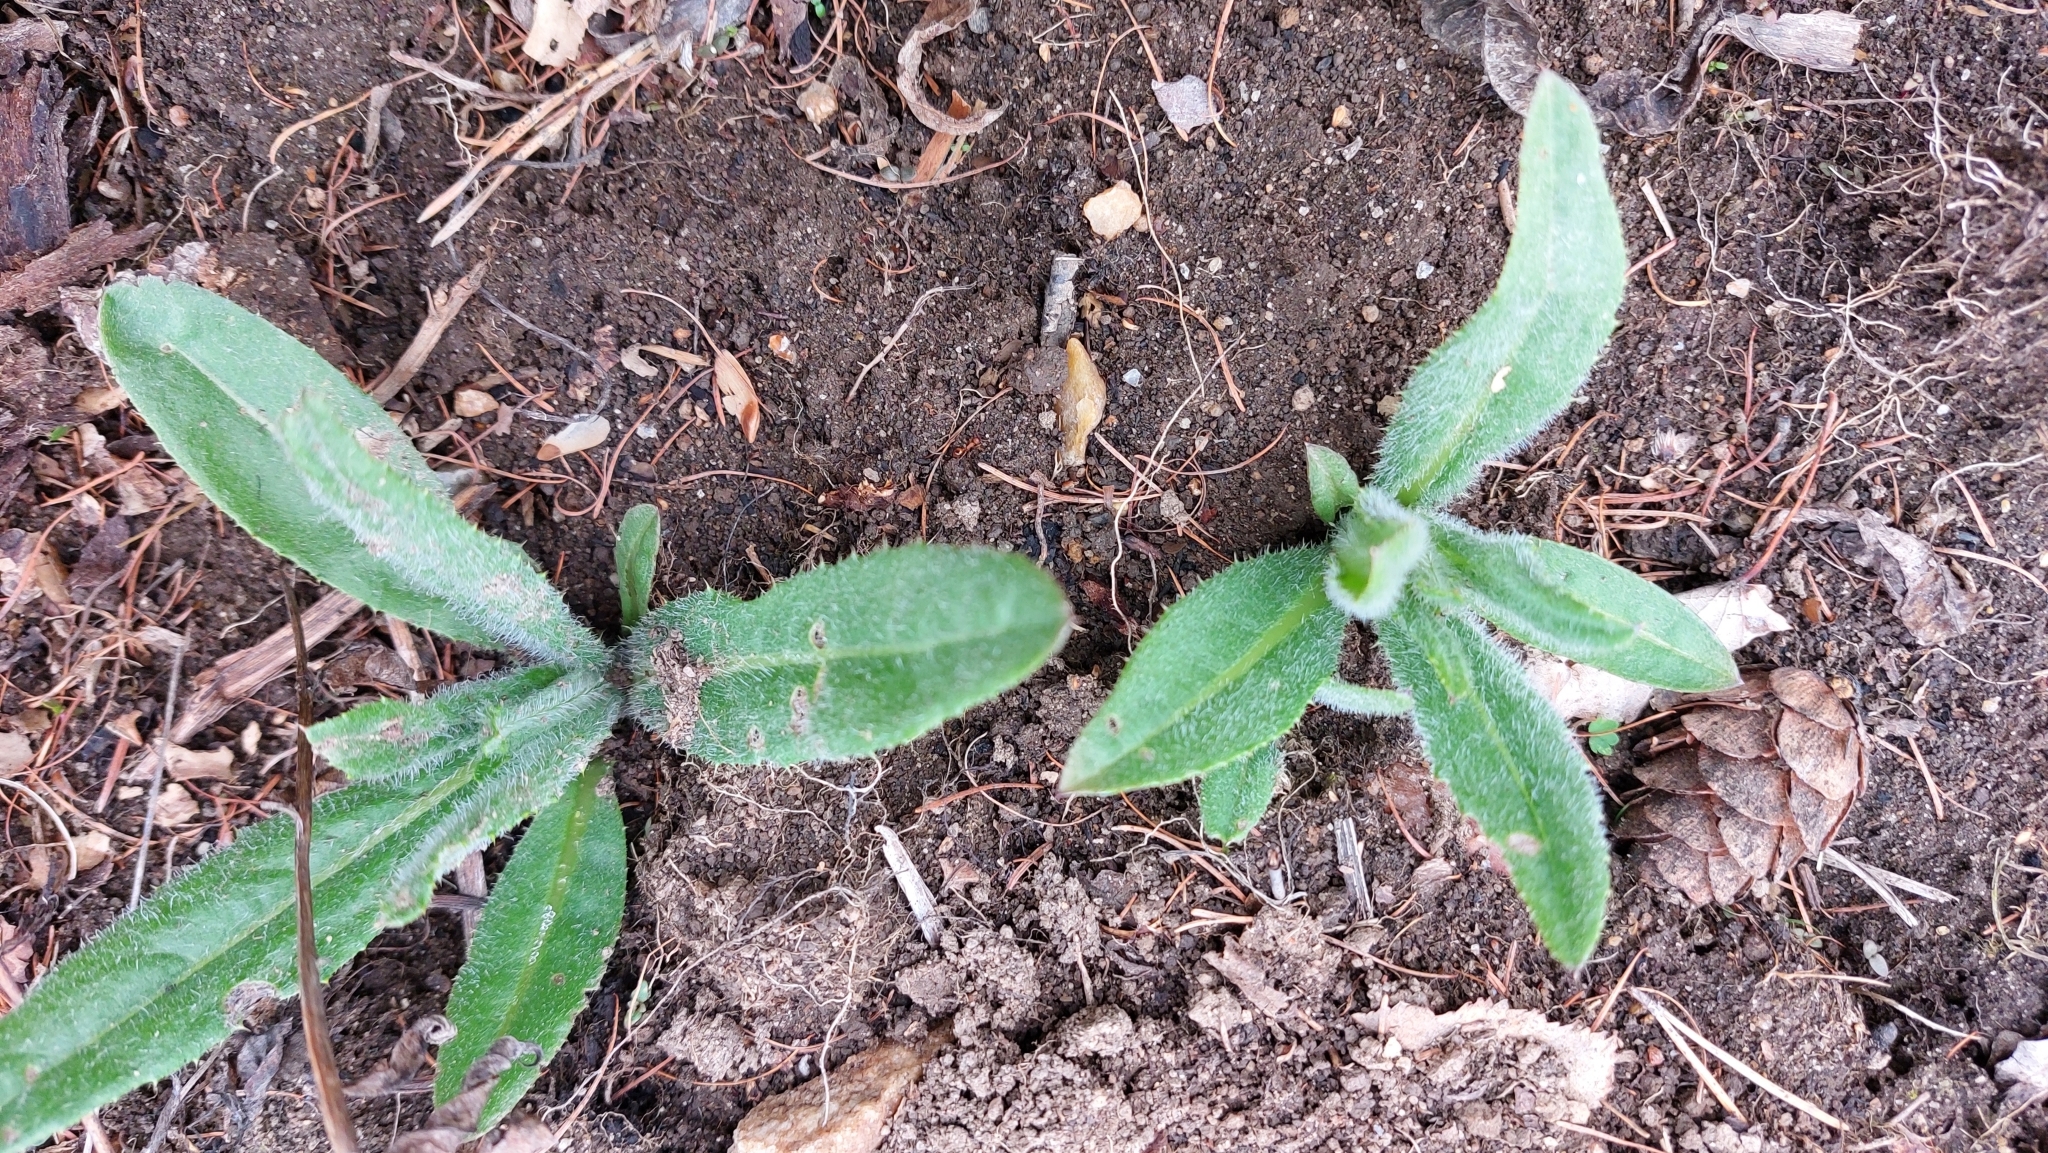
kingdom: Plantae
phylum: Tracheophyta
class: Magnoliopsida
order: Asterales
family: Asteraceae
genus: Cirsium
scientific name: Cirsium arvense
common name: Creeping thistle
